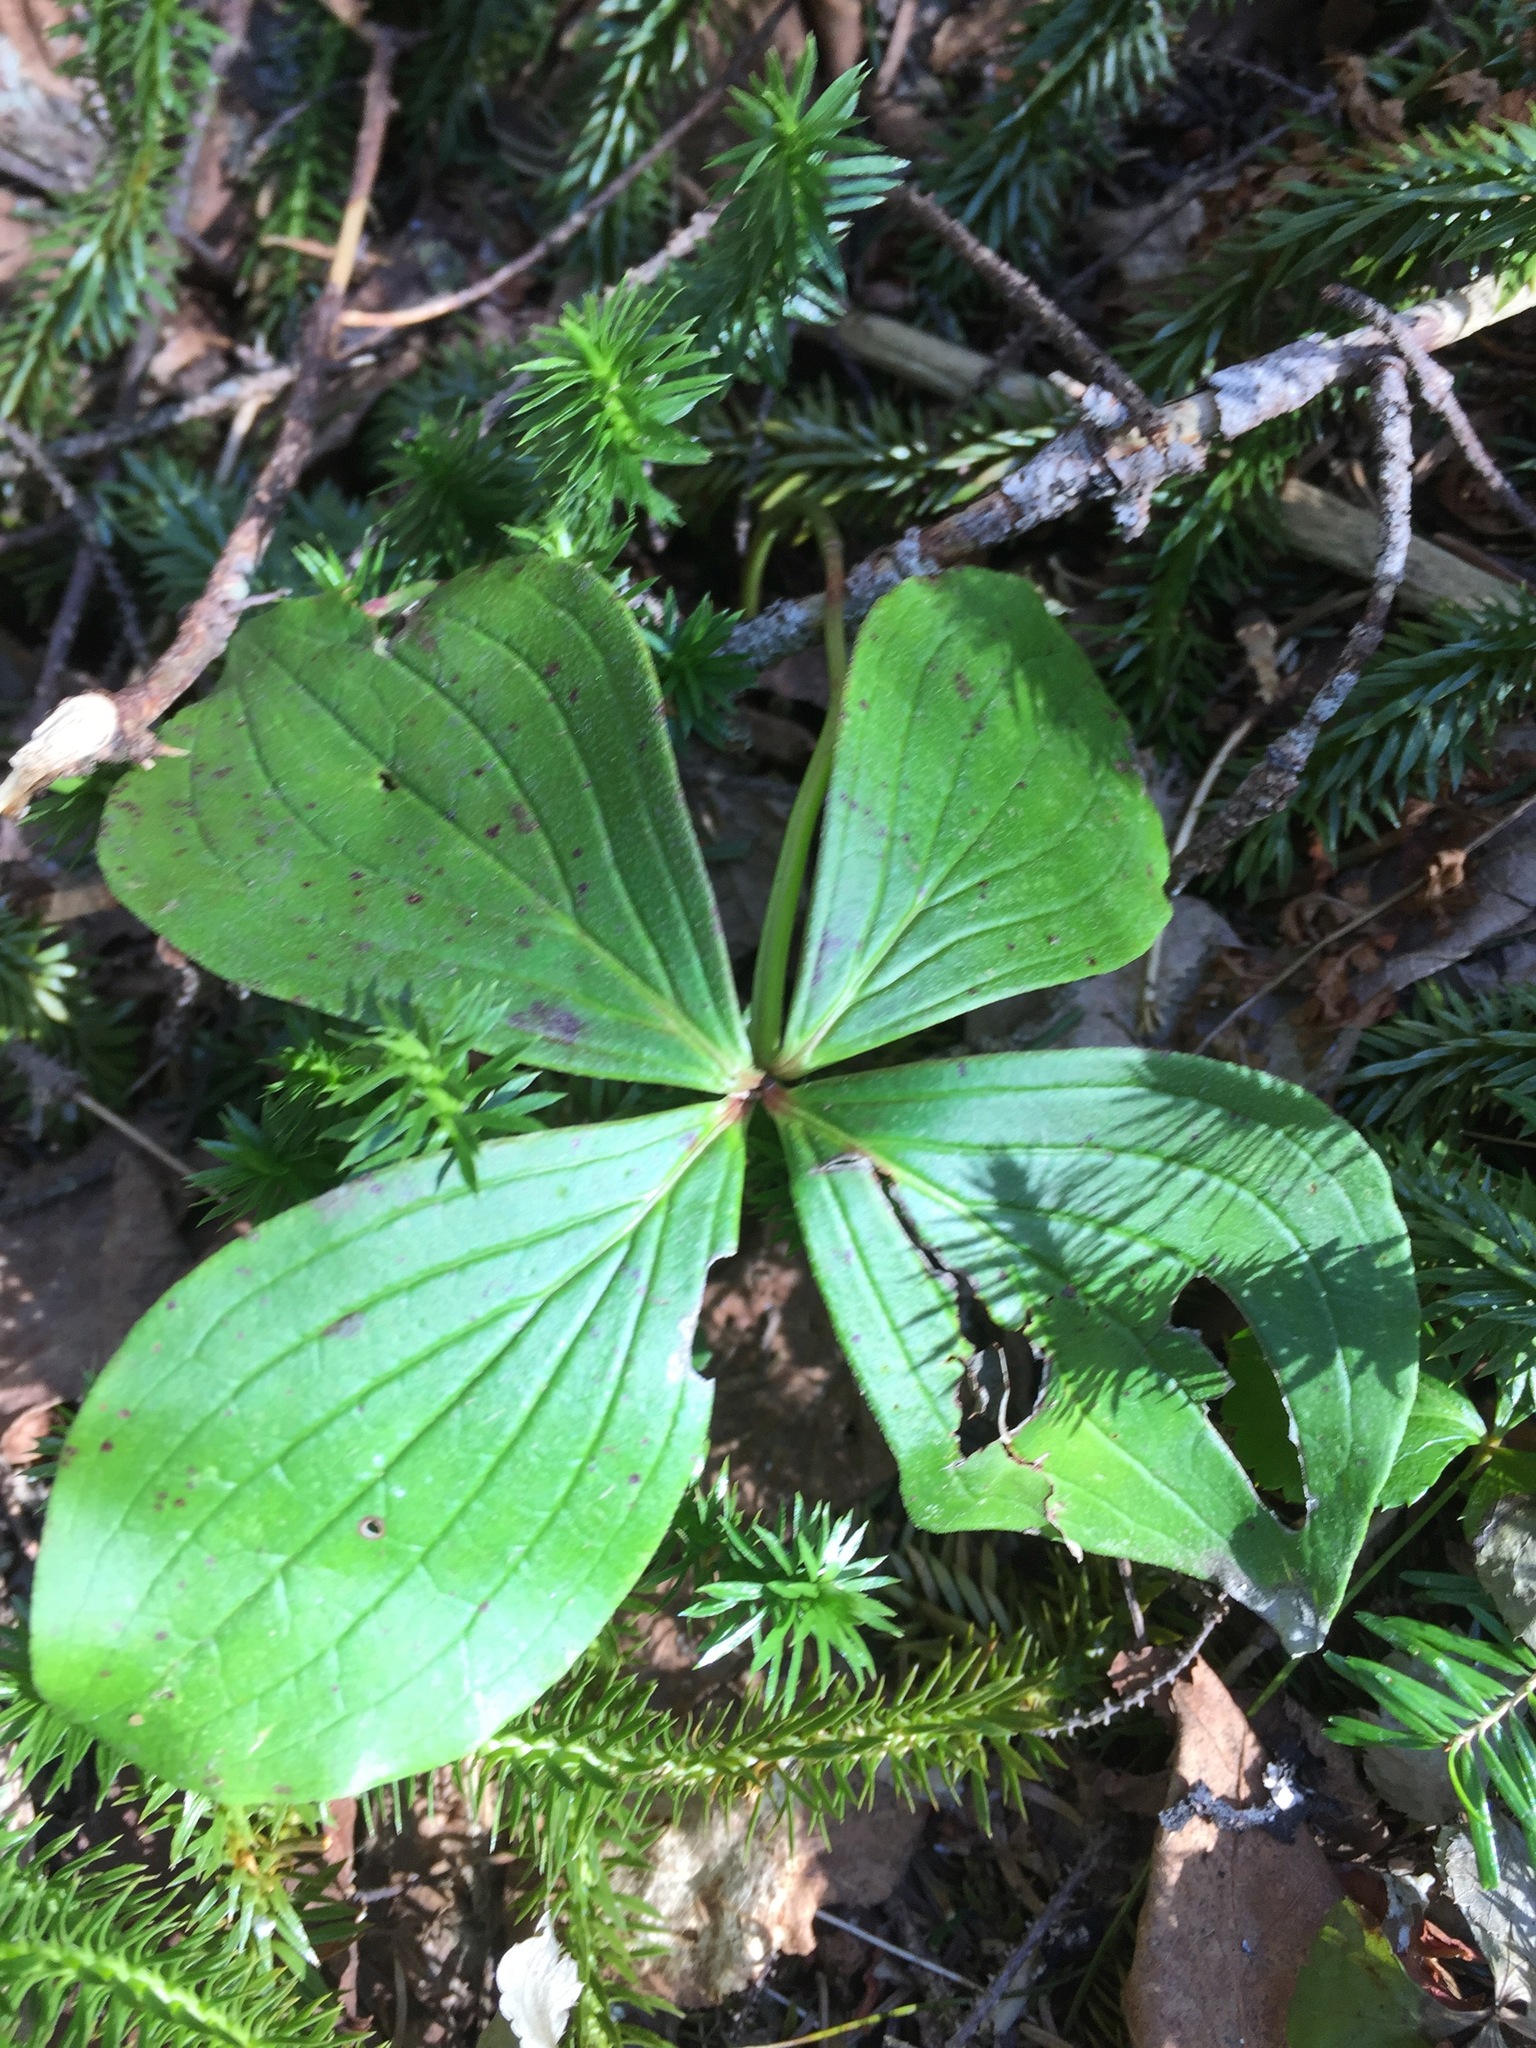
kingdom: Plantae
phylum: Tracheophyta
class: Magnoliopsida
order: Cornales
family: Cornaceae
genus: Cornus
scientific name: Cornus canadensis
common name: Creeping dogwood
